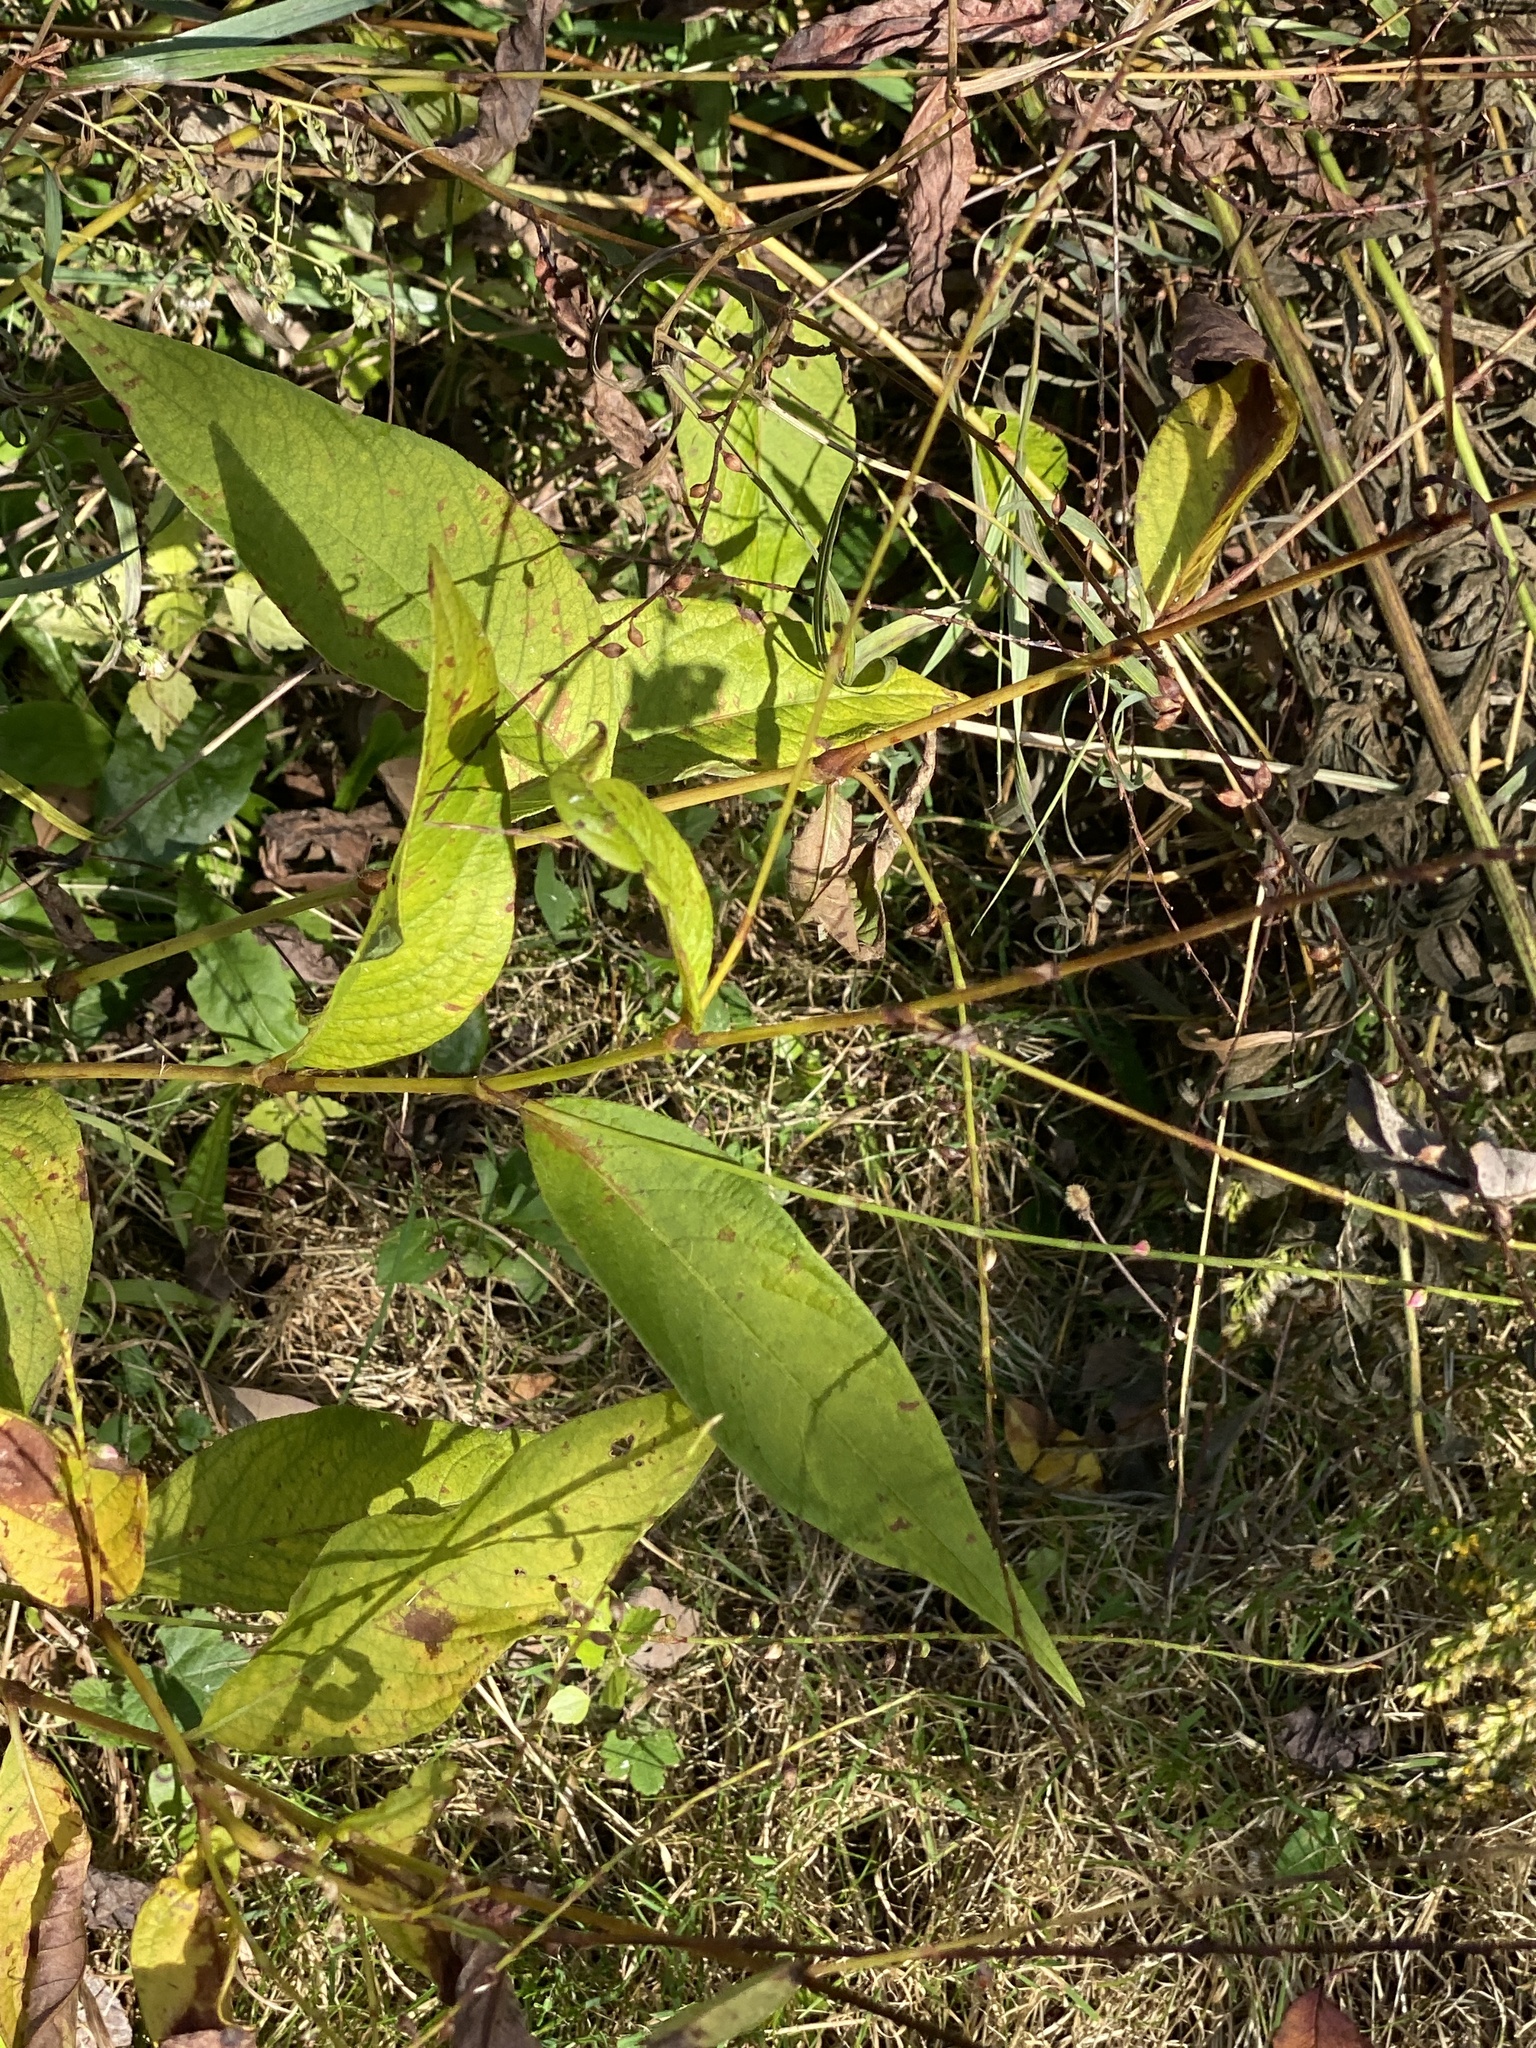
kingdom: Plantae
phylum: Tracheophyta
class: Magnoliopsida
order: Caryophyllales
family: Polygonaceae
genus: Persicaria
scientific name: Persicaria virginiana
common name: Jumpseed
